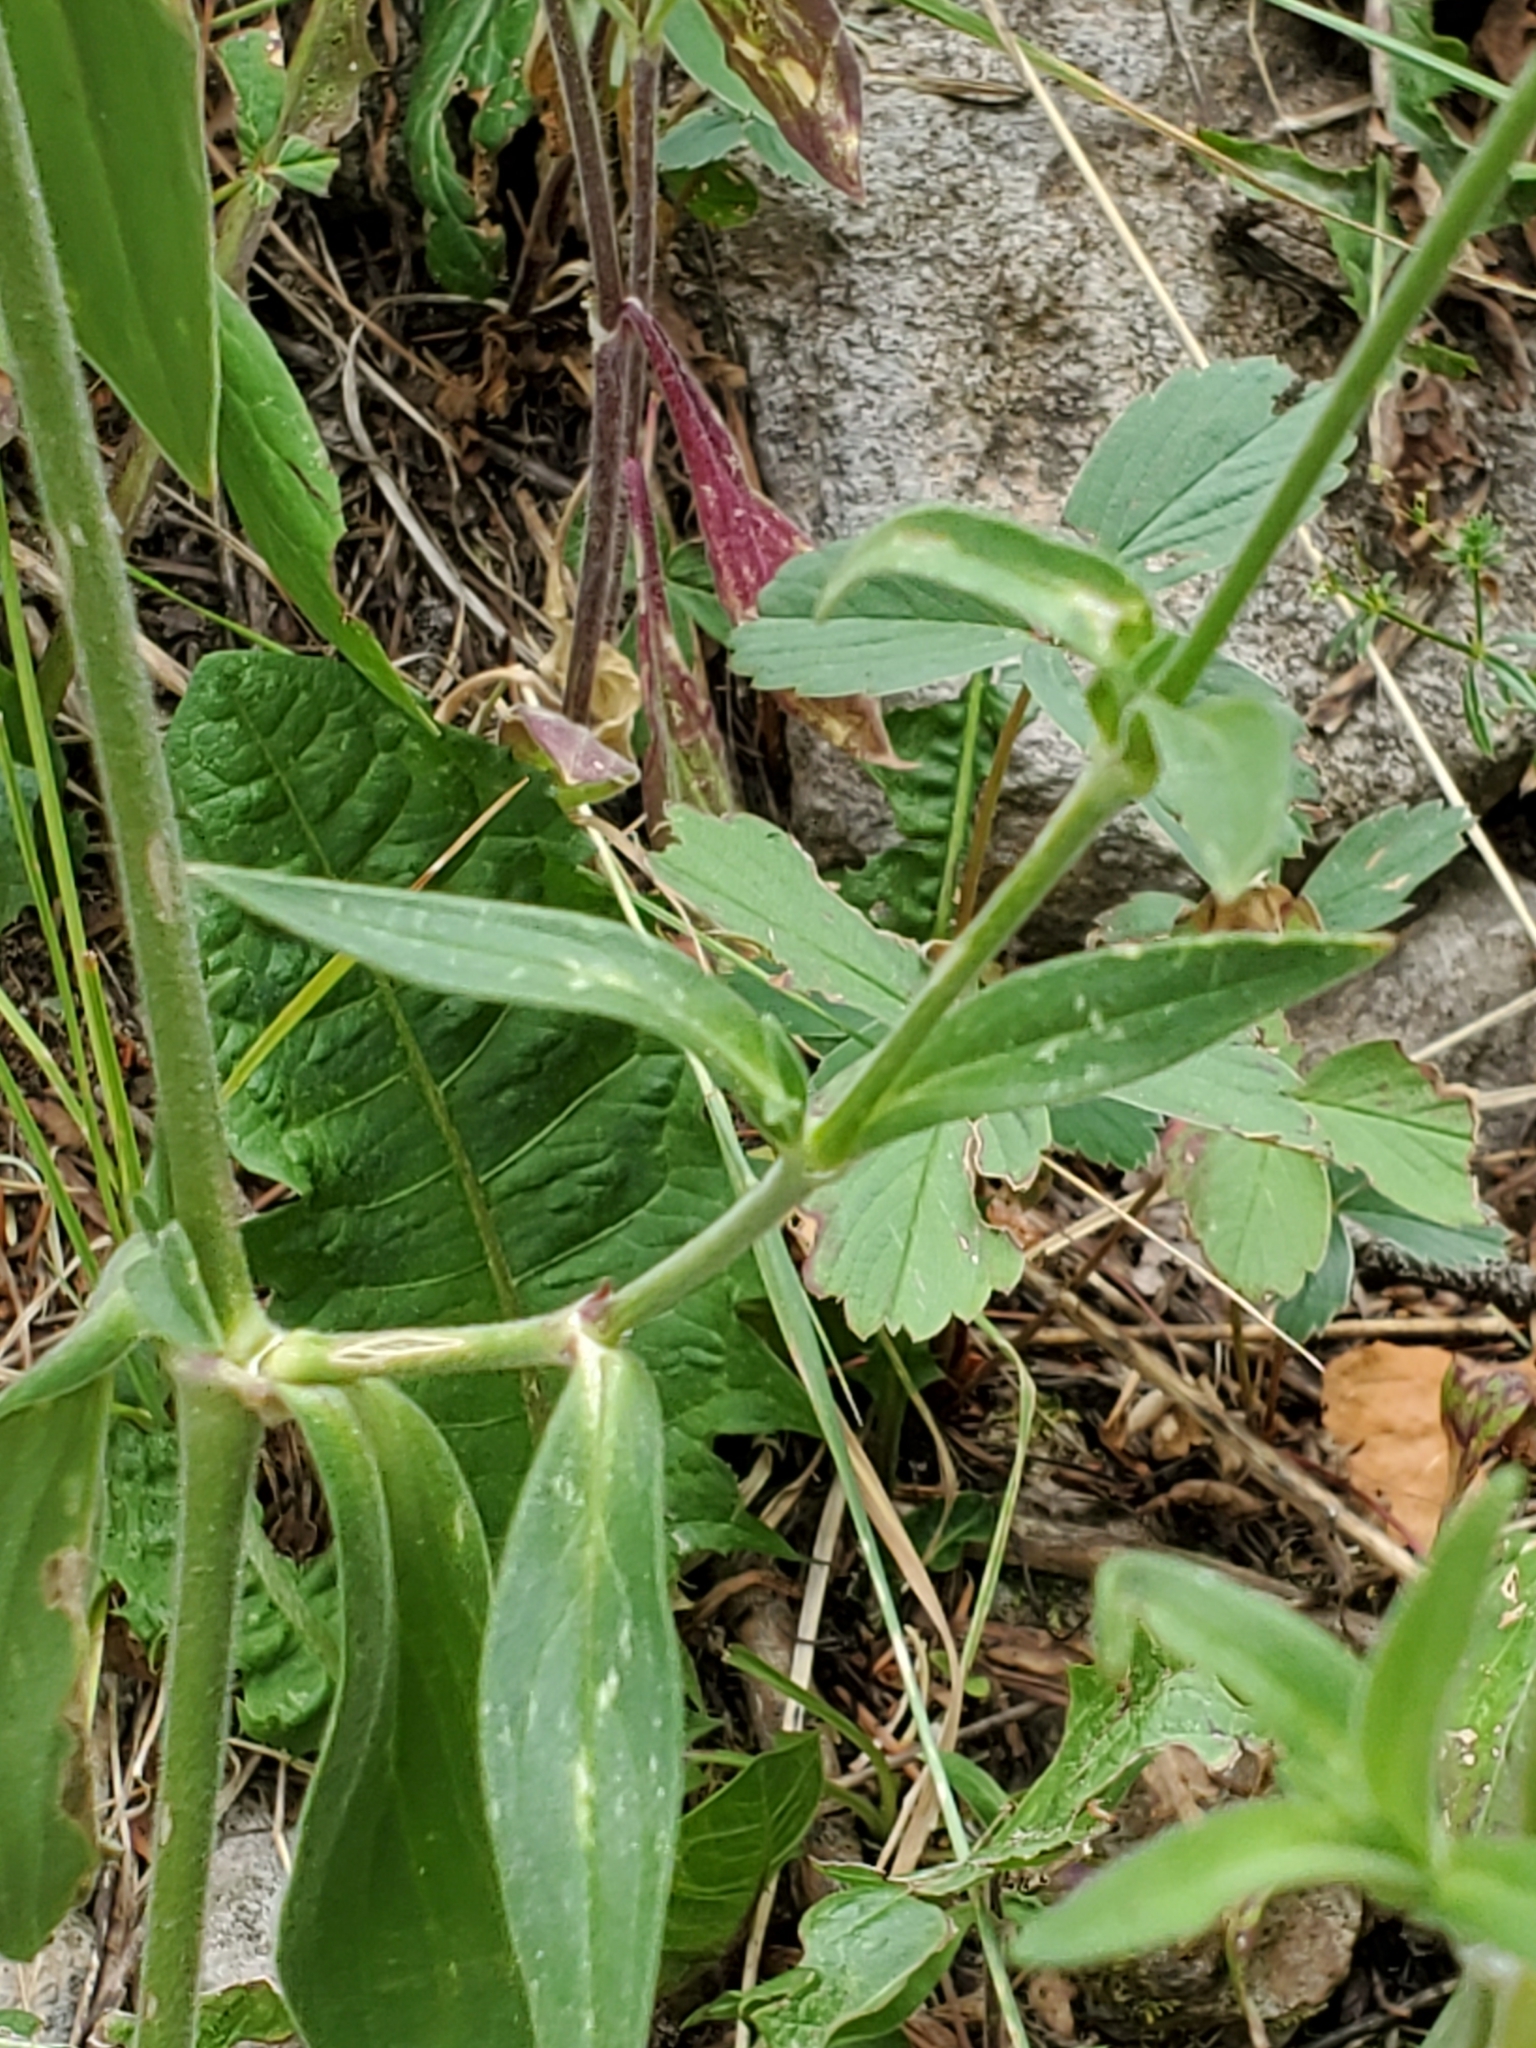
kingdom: Plantae
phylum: Tracheophyta
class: Magnoliopsida
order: Caryophyllales
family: Caryophyllaceae
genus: Silene
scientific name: Silene latifolia
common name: White campion
